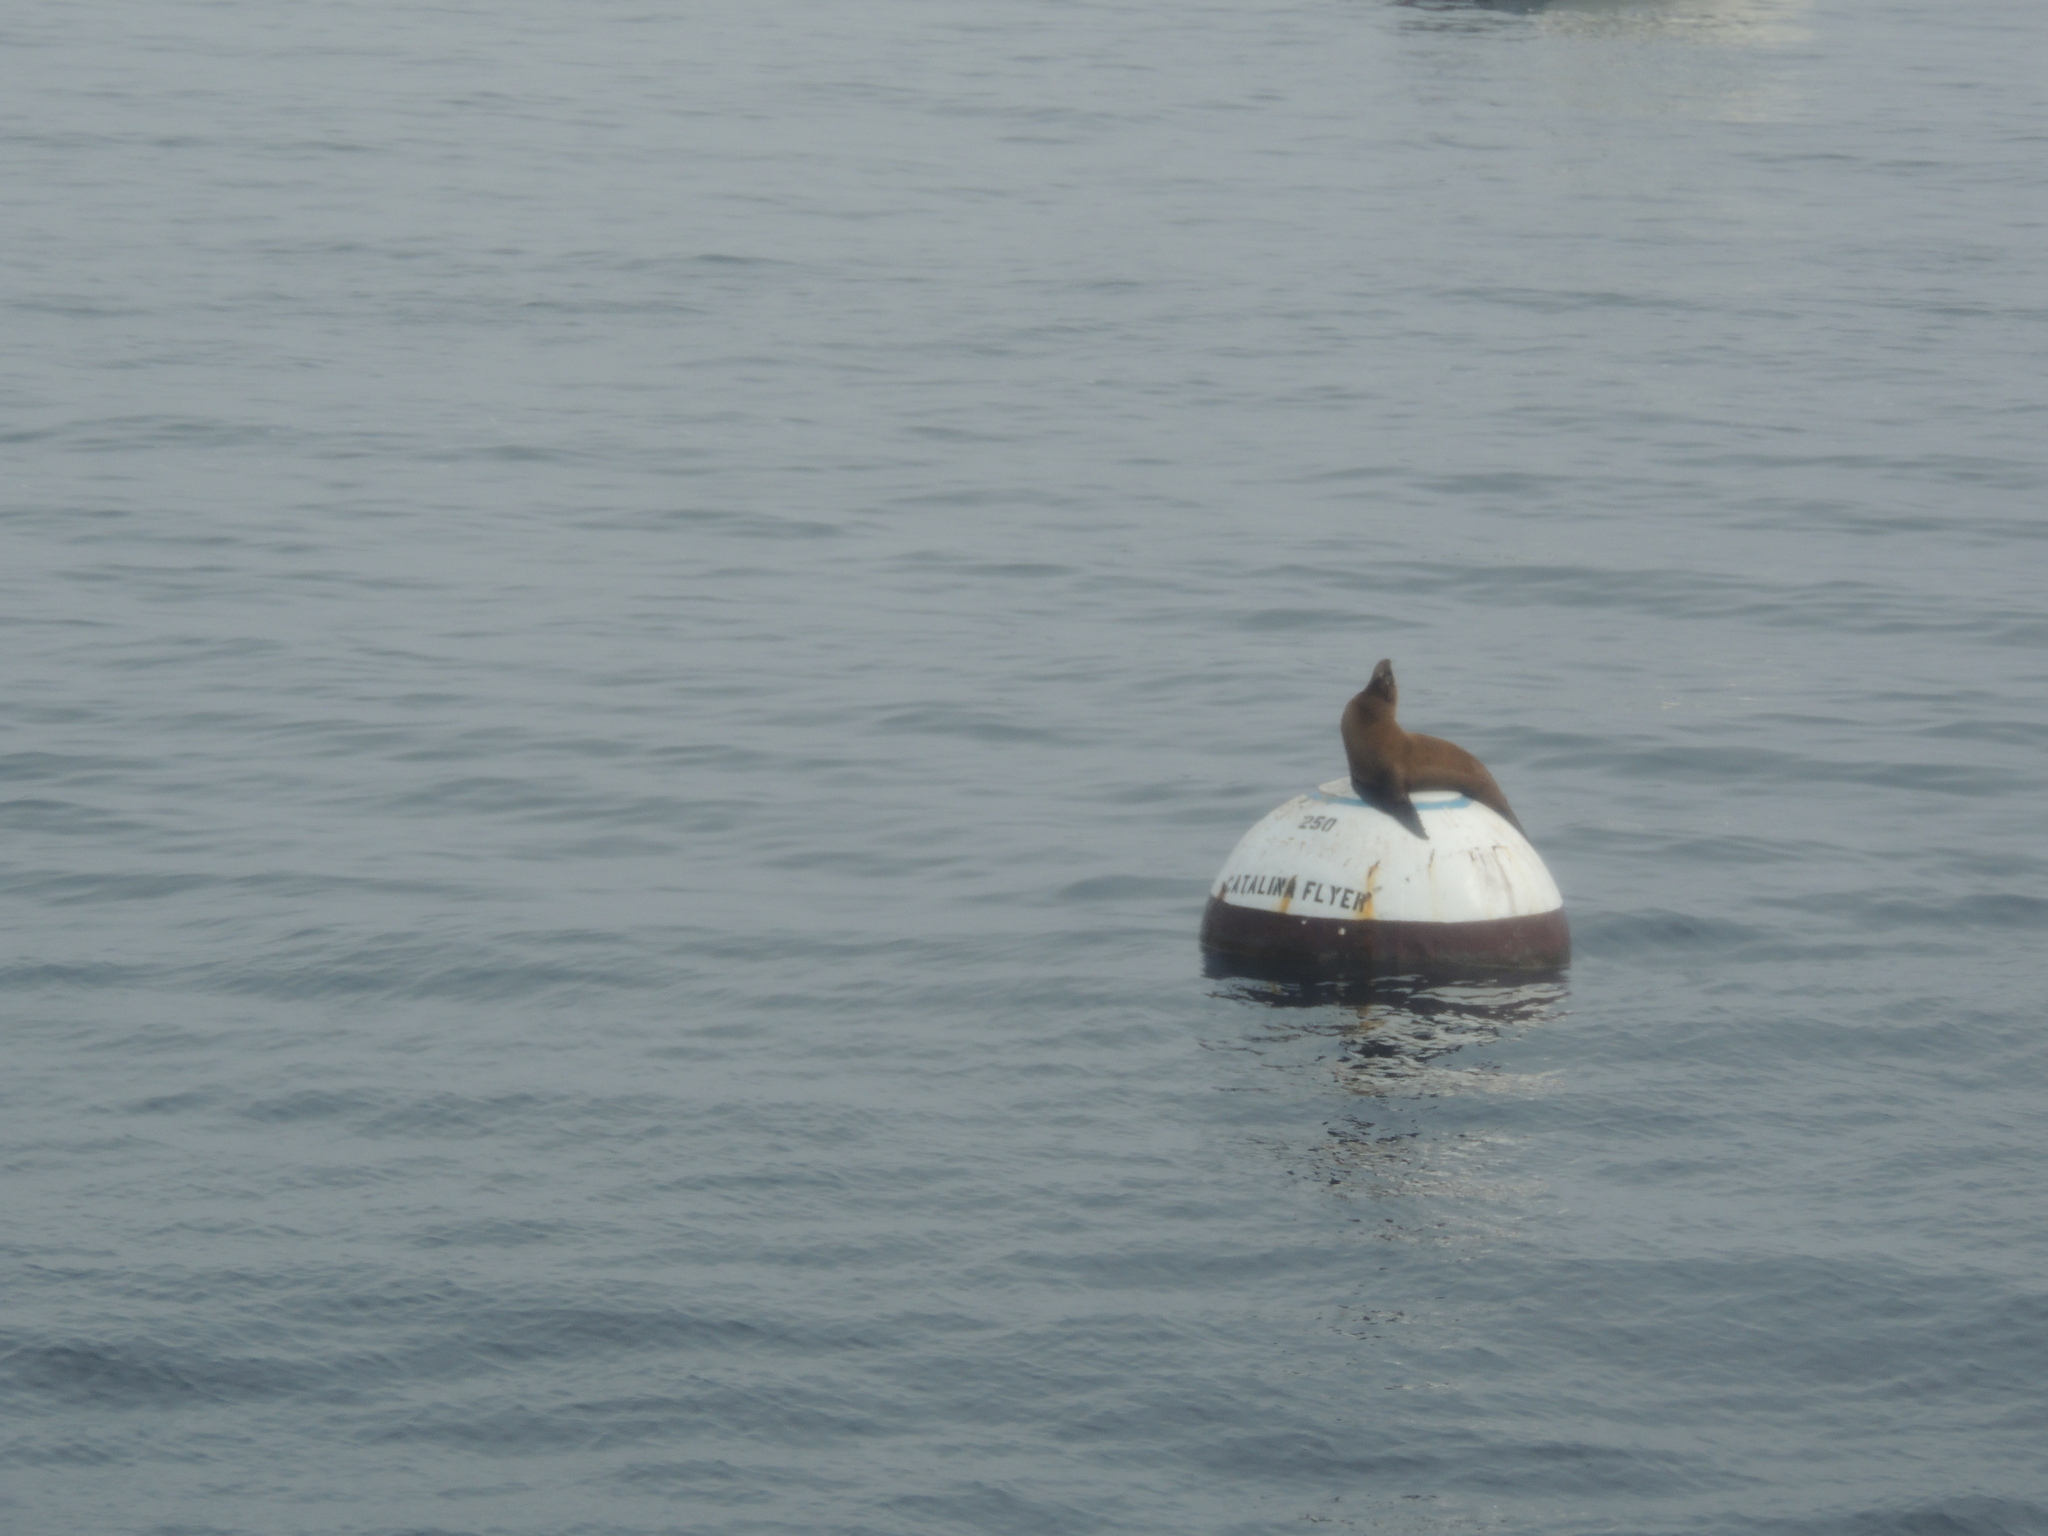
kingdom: Animalia
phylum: Chordata
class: Mammalia
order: Carnivora
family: Otariidae
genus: Zalophus
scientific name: Zalophus californianus
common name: California sea lion
